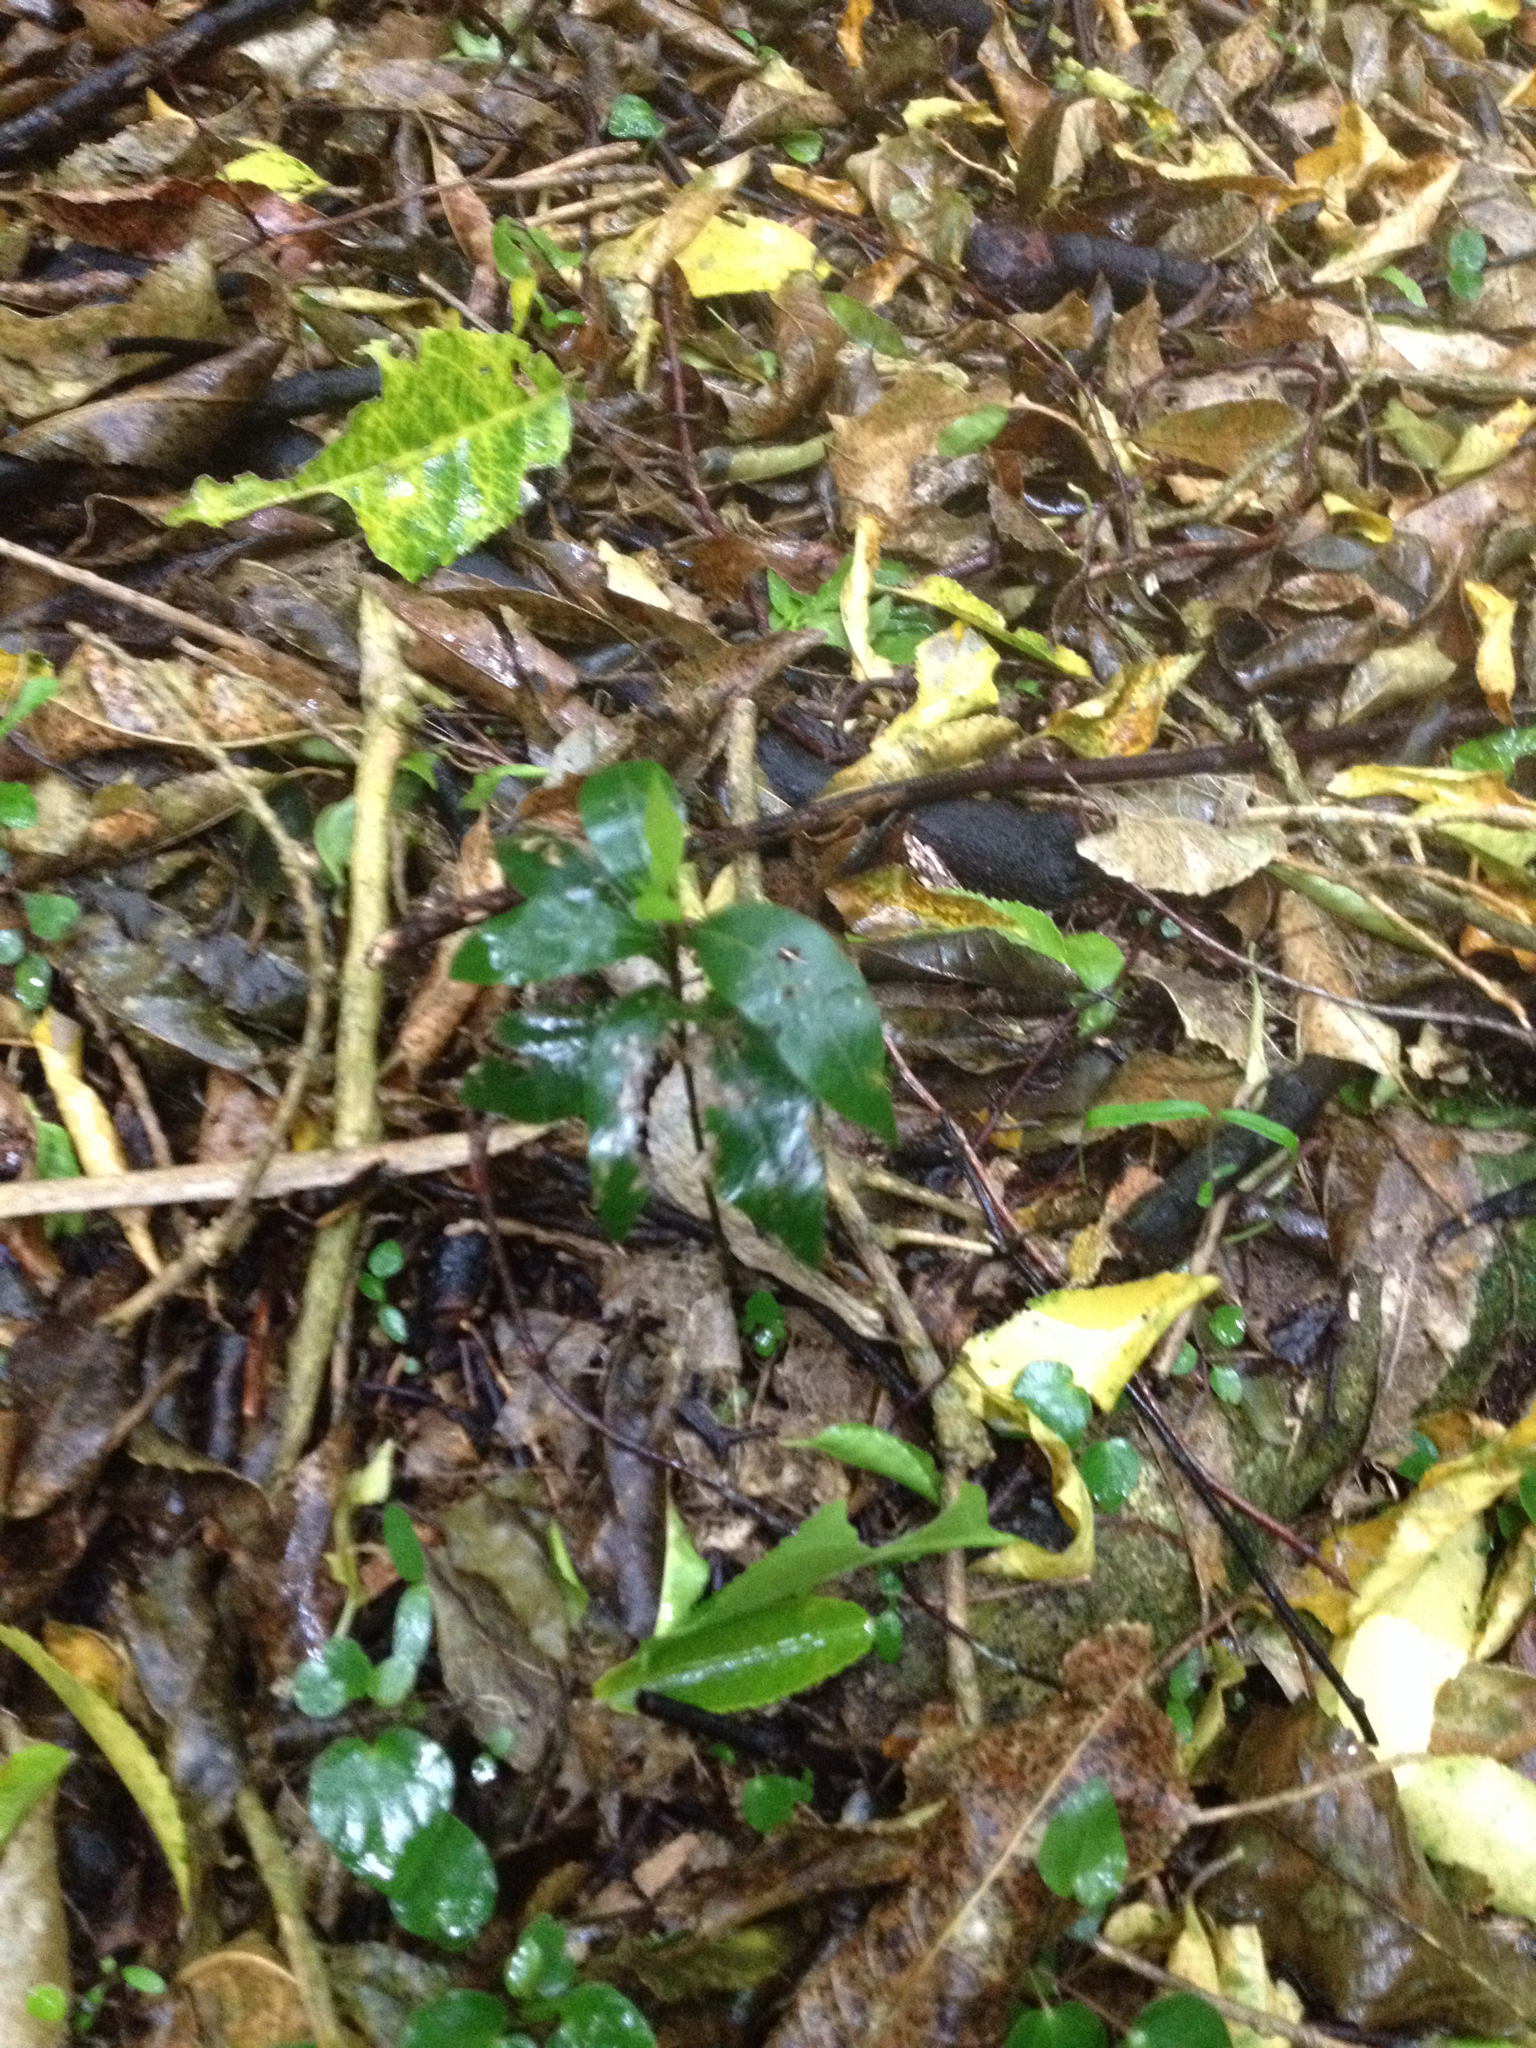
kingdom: Plantae
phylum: Tracheophyta
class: Magnoliopsida
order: Laurales
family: Lauraceae
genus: Laurus
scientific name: Laurus nobilis
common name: Bay
